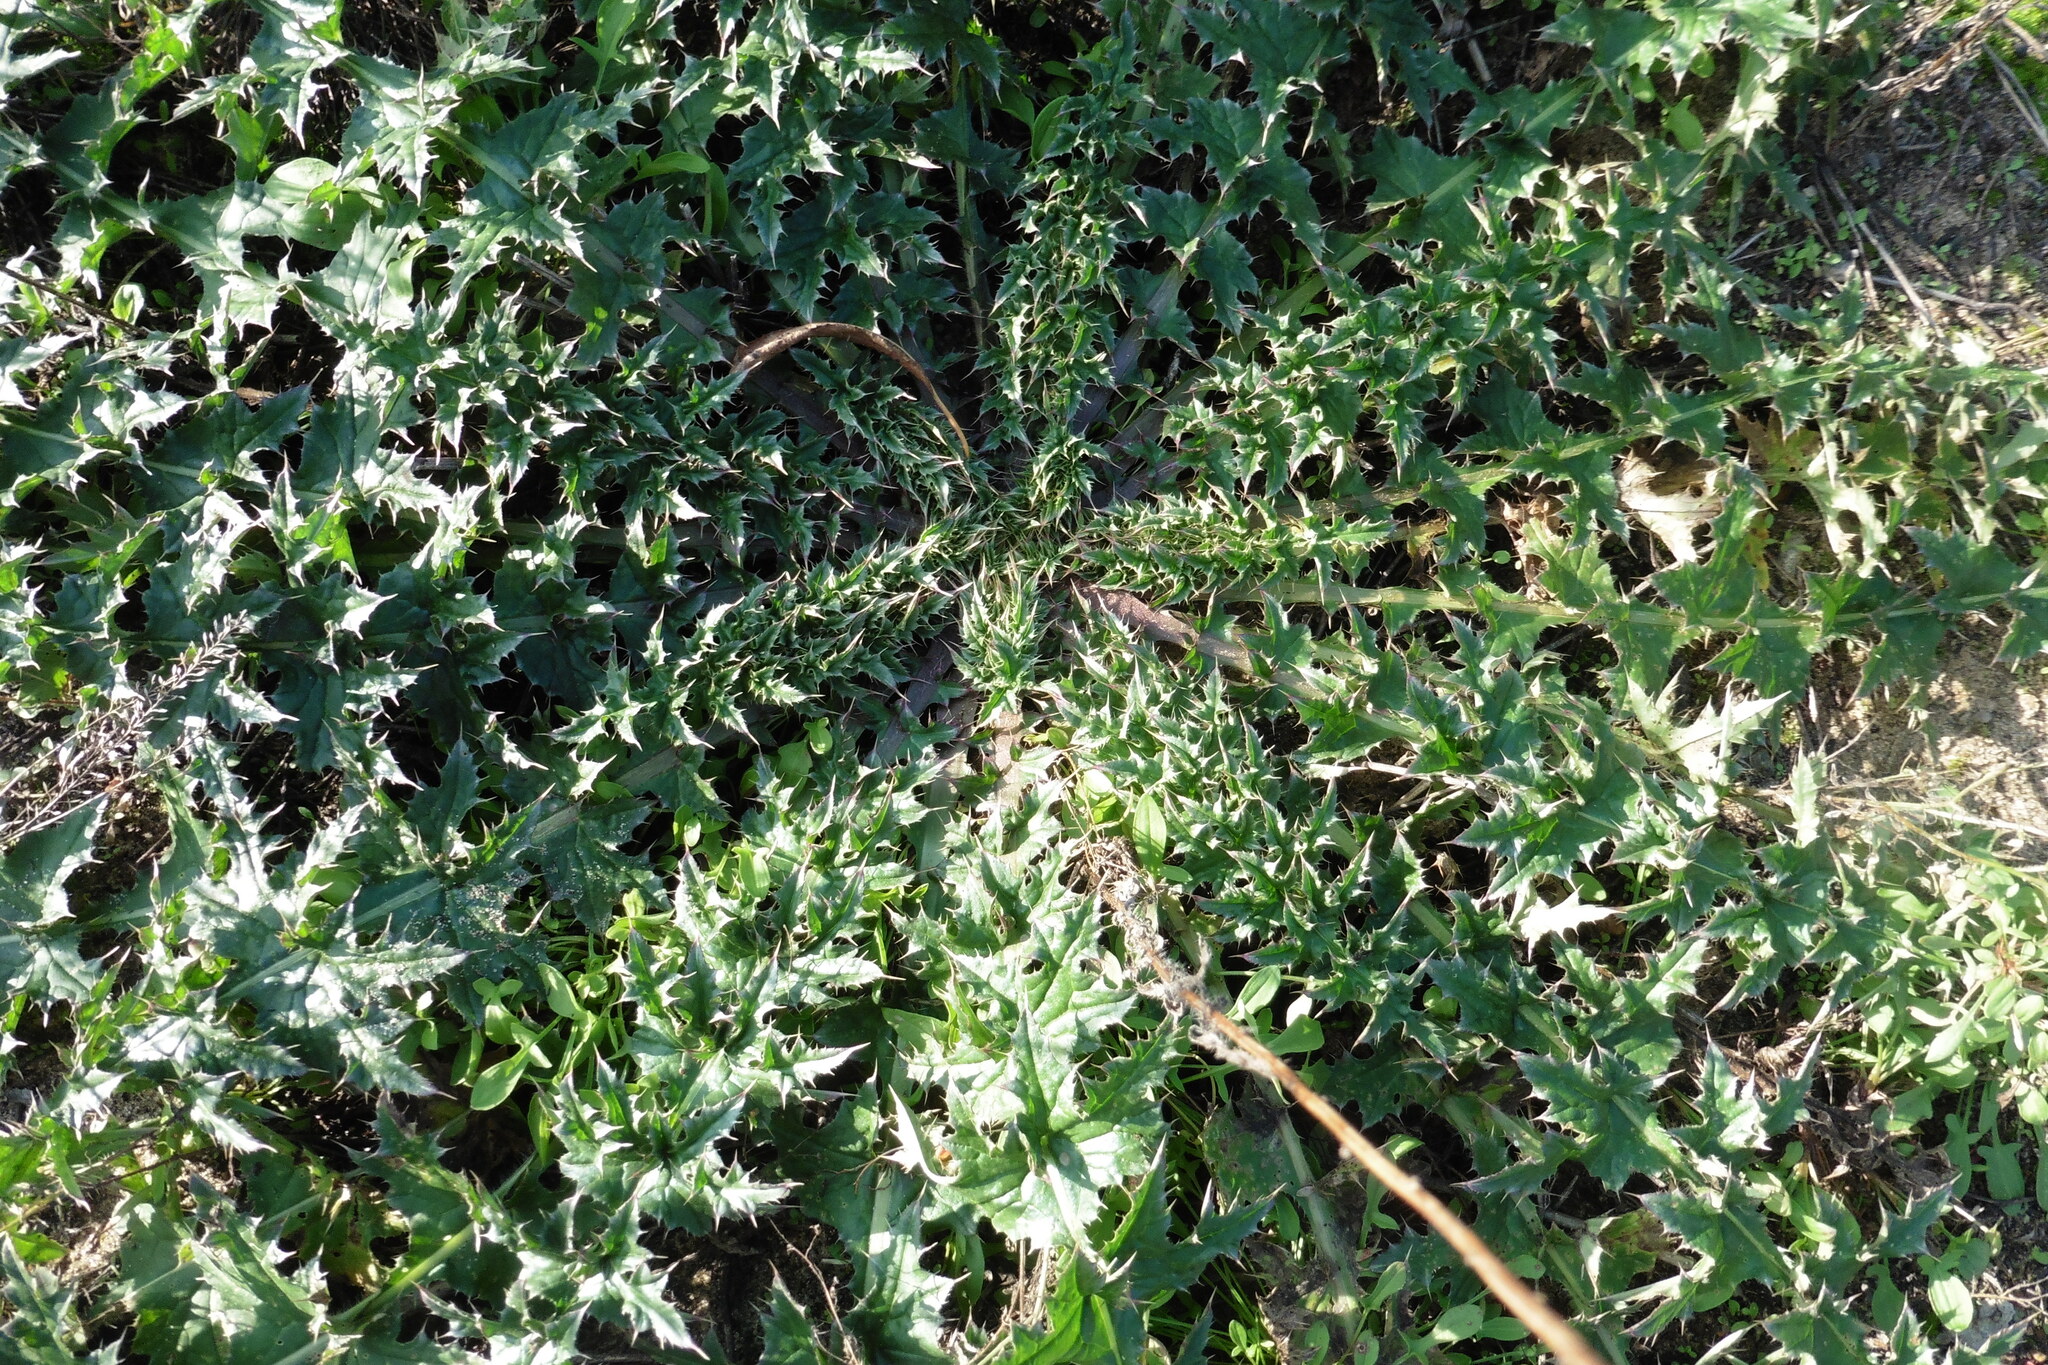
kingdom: Plantae
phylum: Tracheophyta
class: Magnoliopsida
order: Asterales
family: Asteraceae
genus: Carduus
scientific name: Carduus acanthoides
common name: Plumeless thistle
